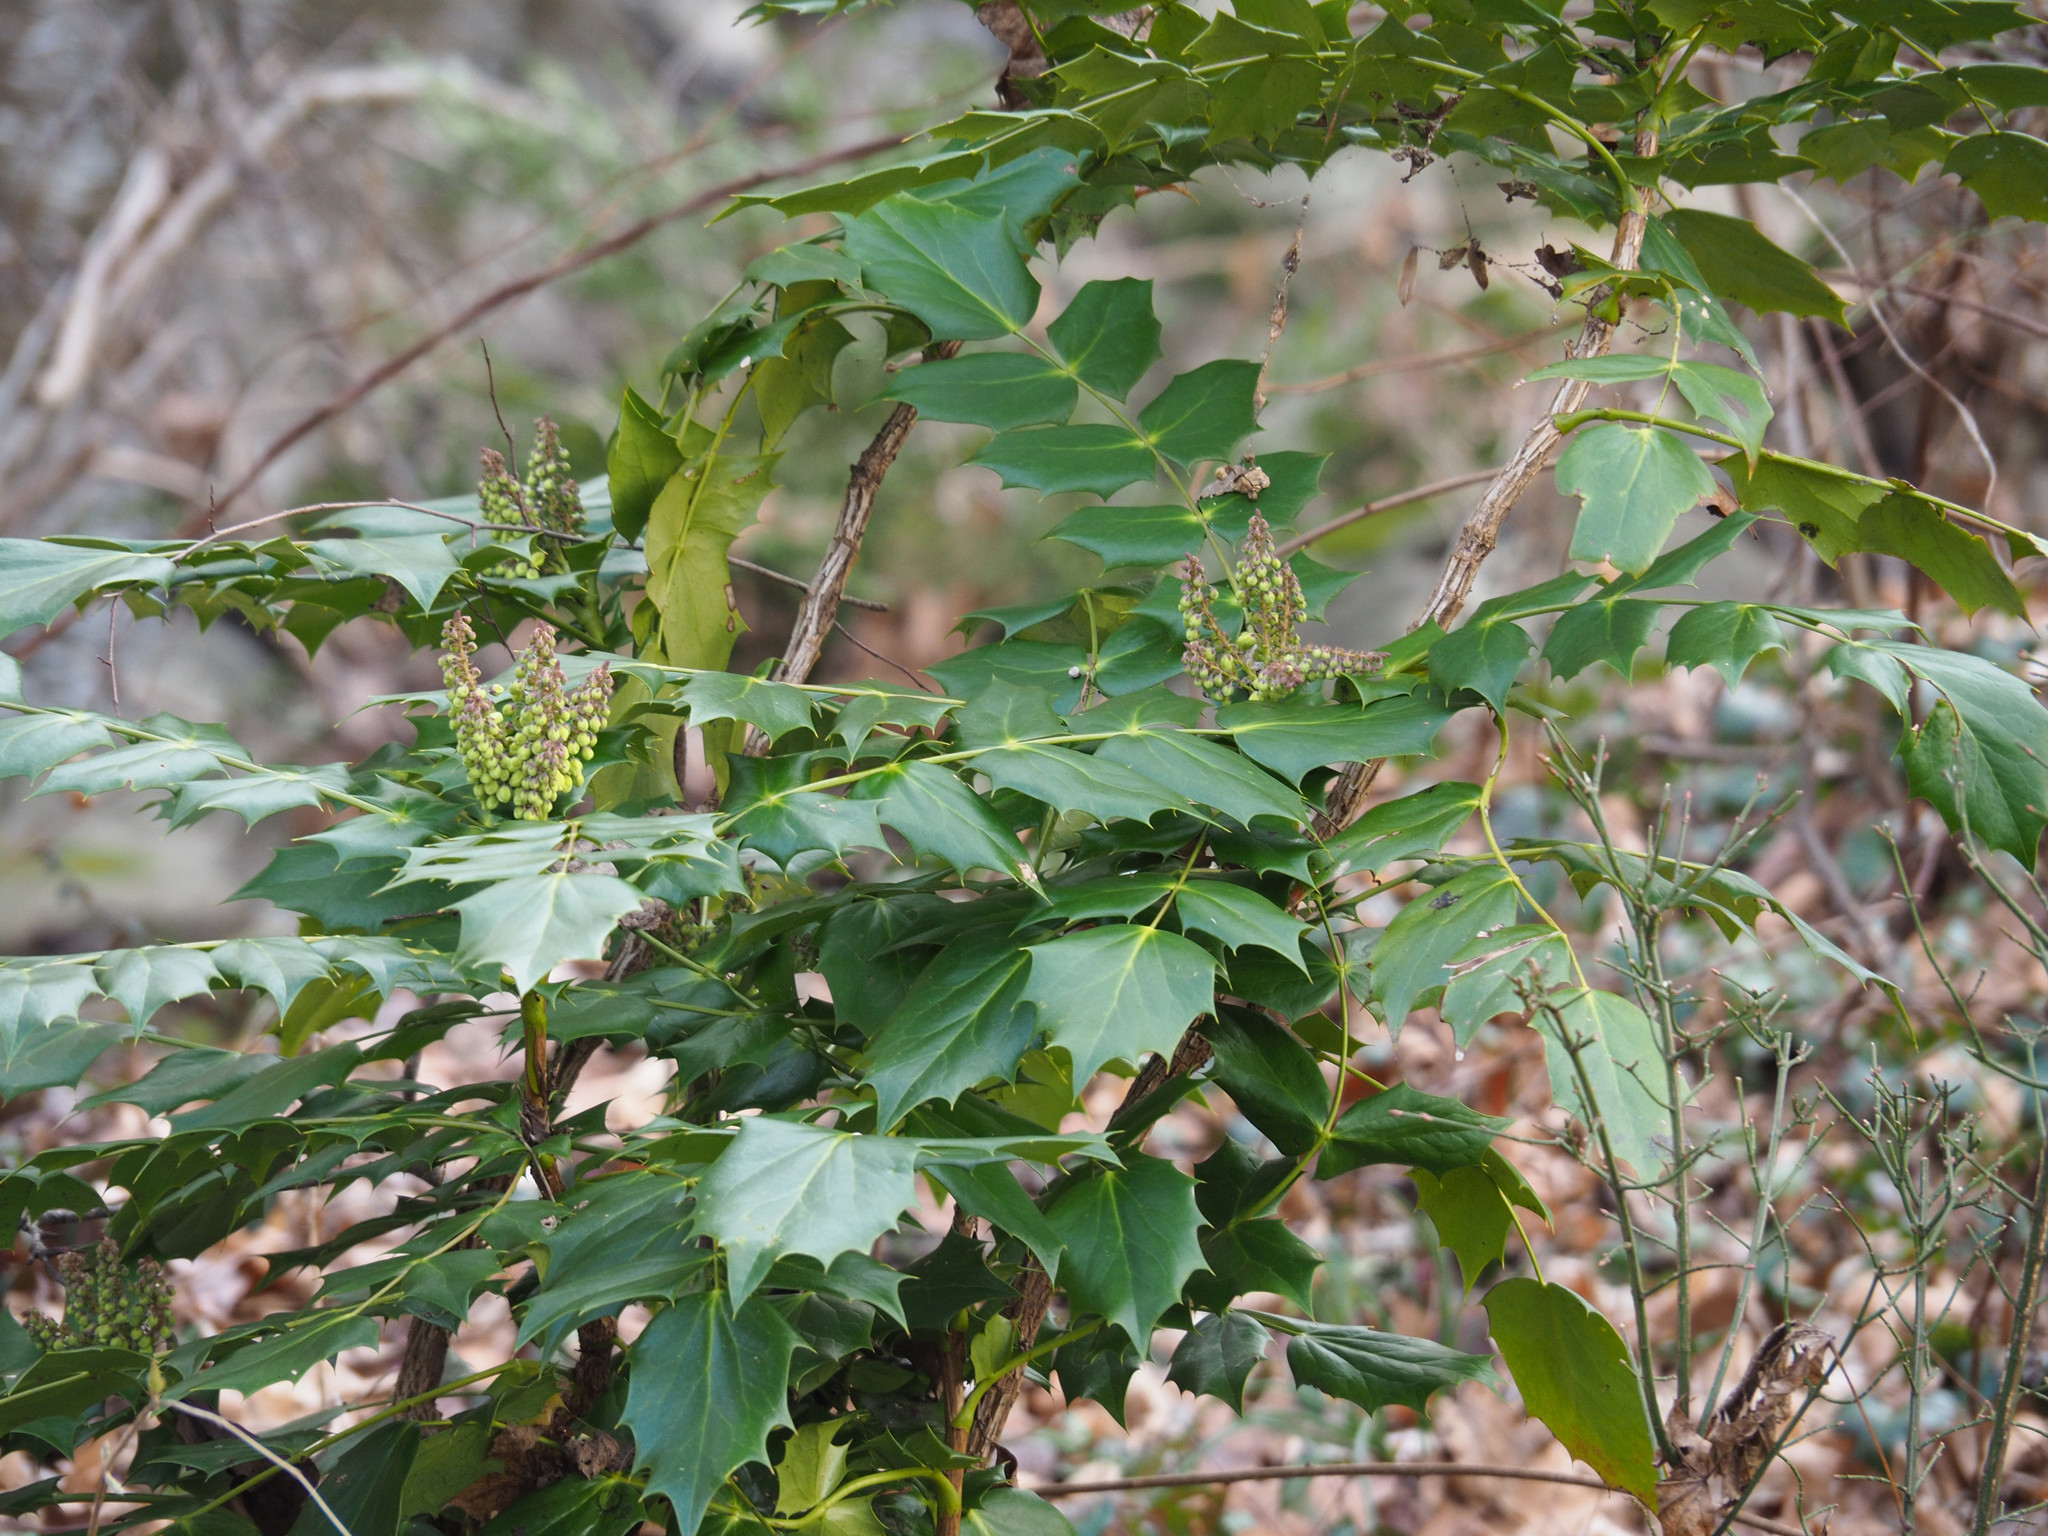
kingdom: Plantae
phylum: Tracheophyta
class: Magnoliopsida
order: Ranunculales
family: Berberidaceae
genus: Mahonia
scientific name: Mahonia bealei
